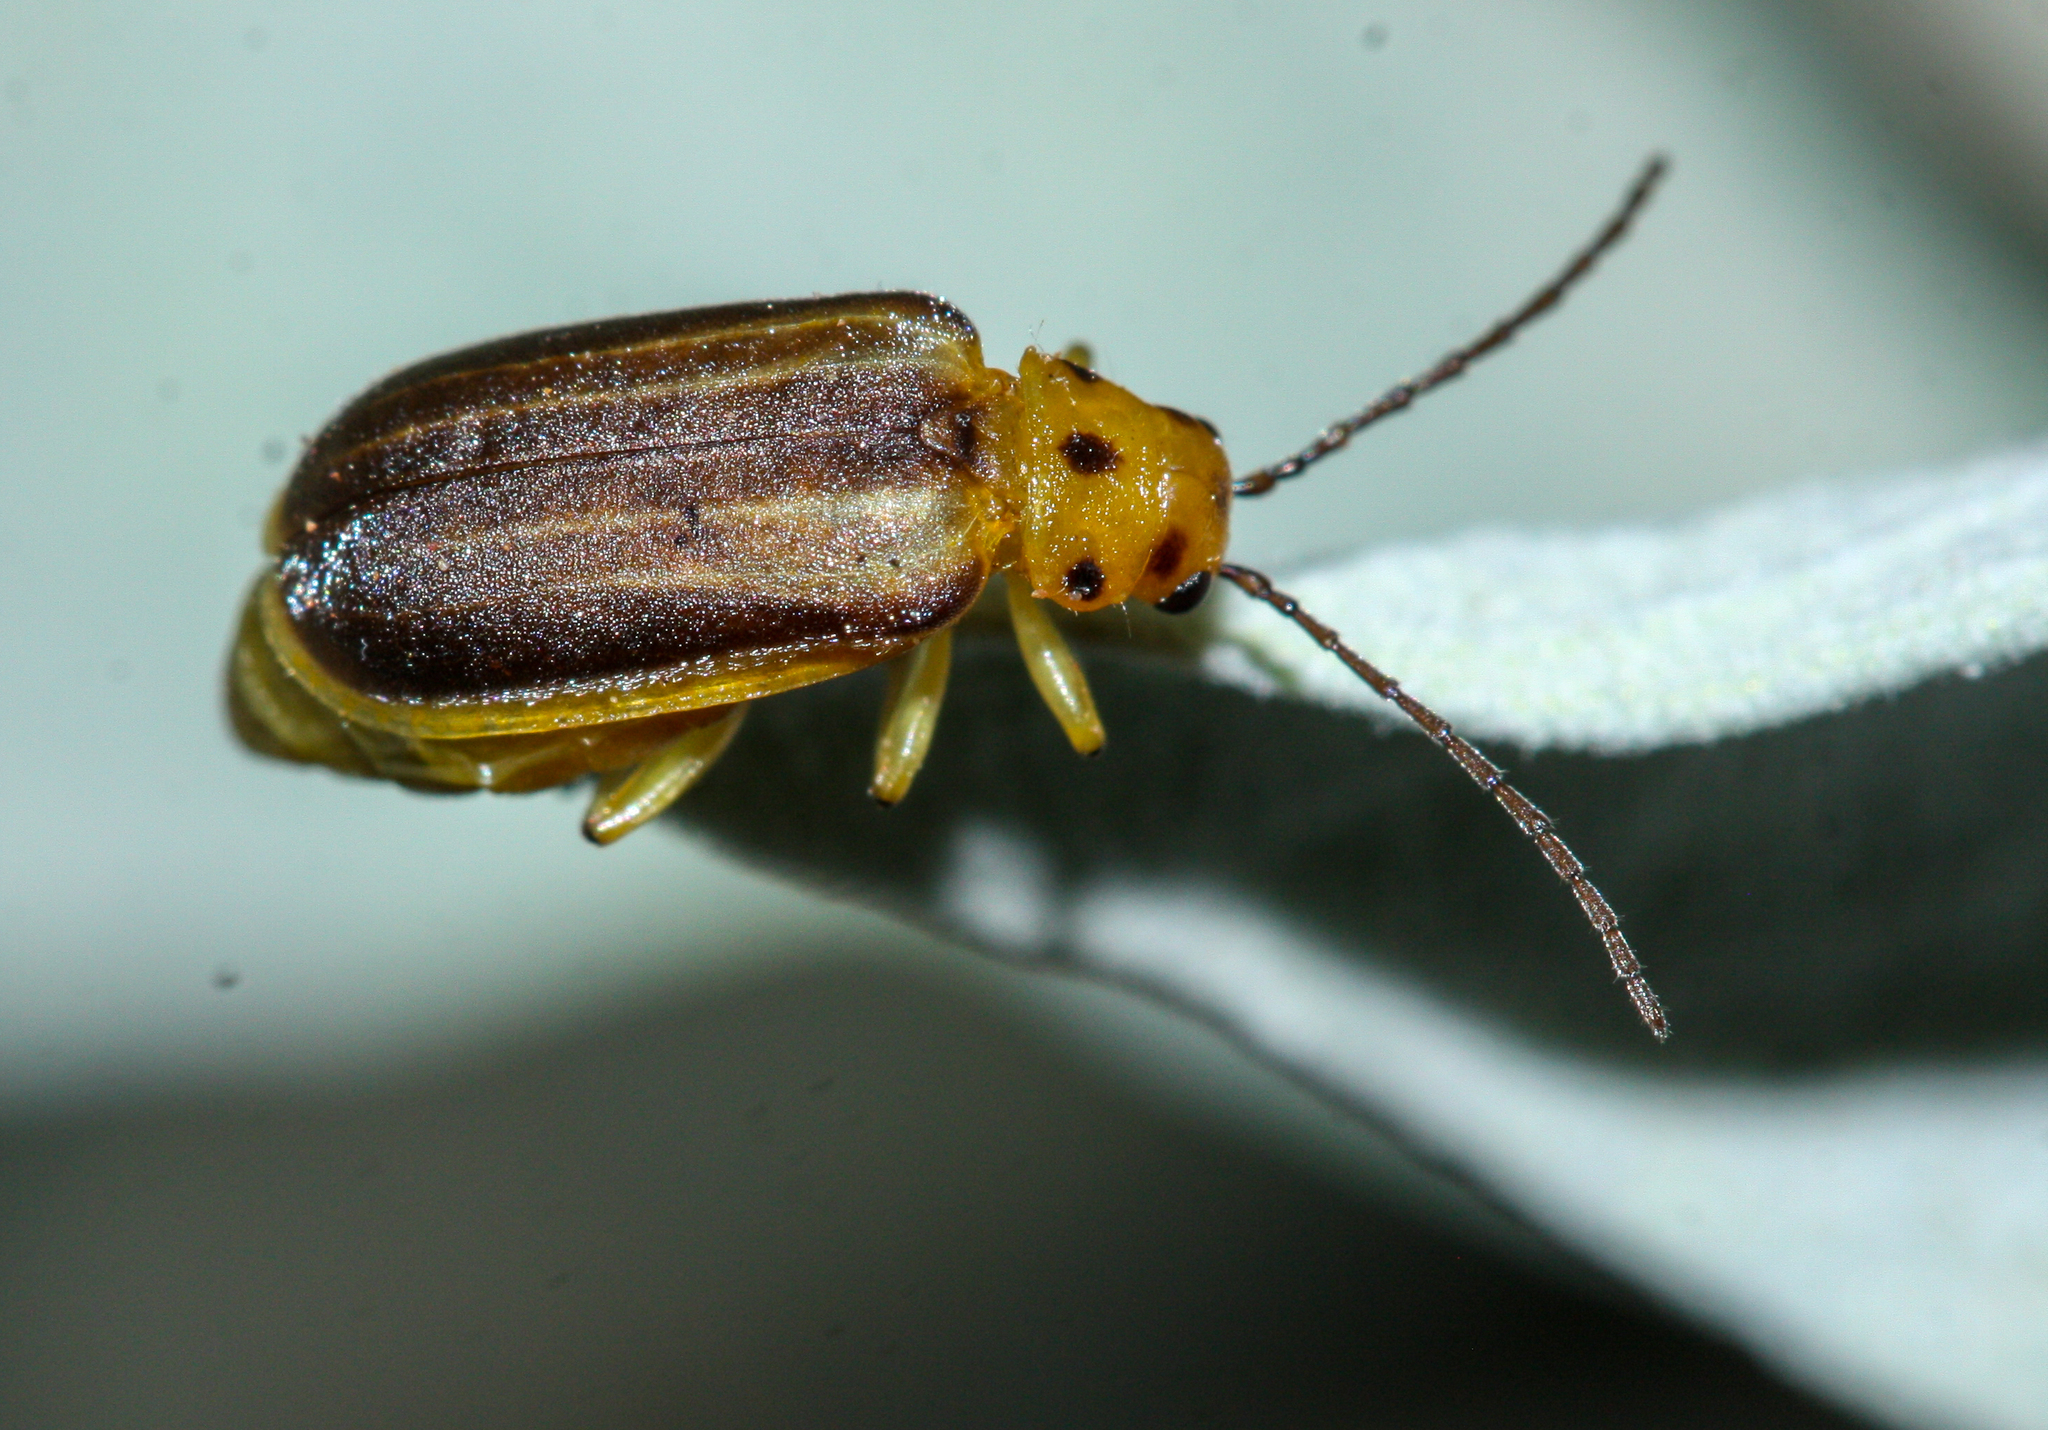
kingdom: Animalia
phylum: Arthropoda
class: Insecta
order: Coleoptera
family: Chrysomelidae
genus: Trirhabda
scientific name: Trirhabda geminata
